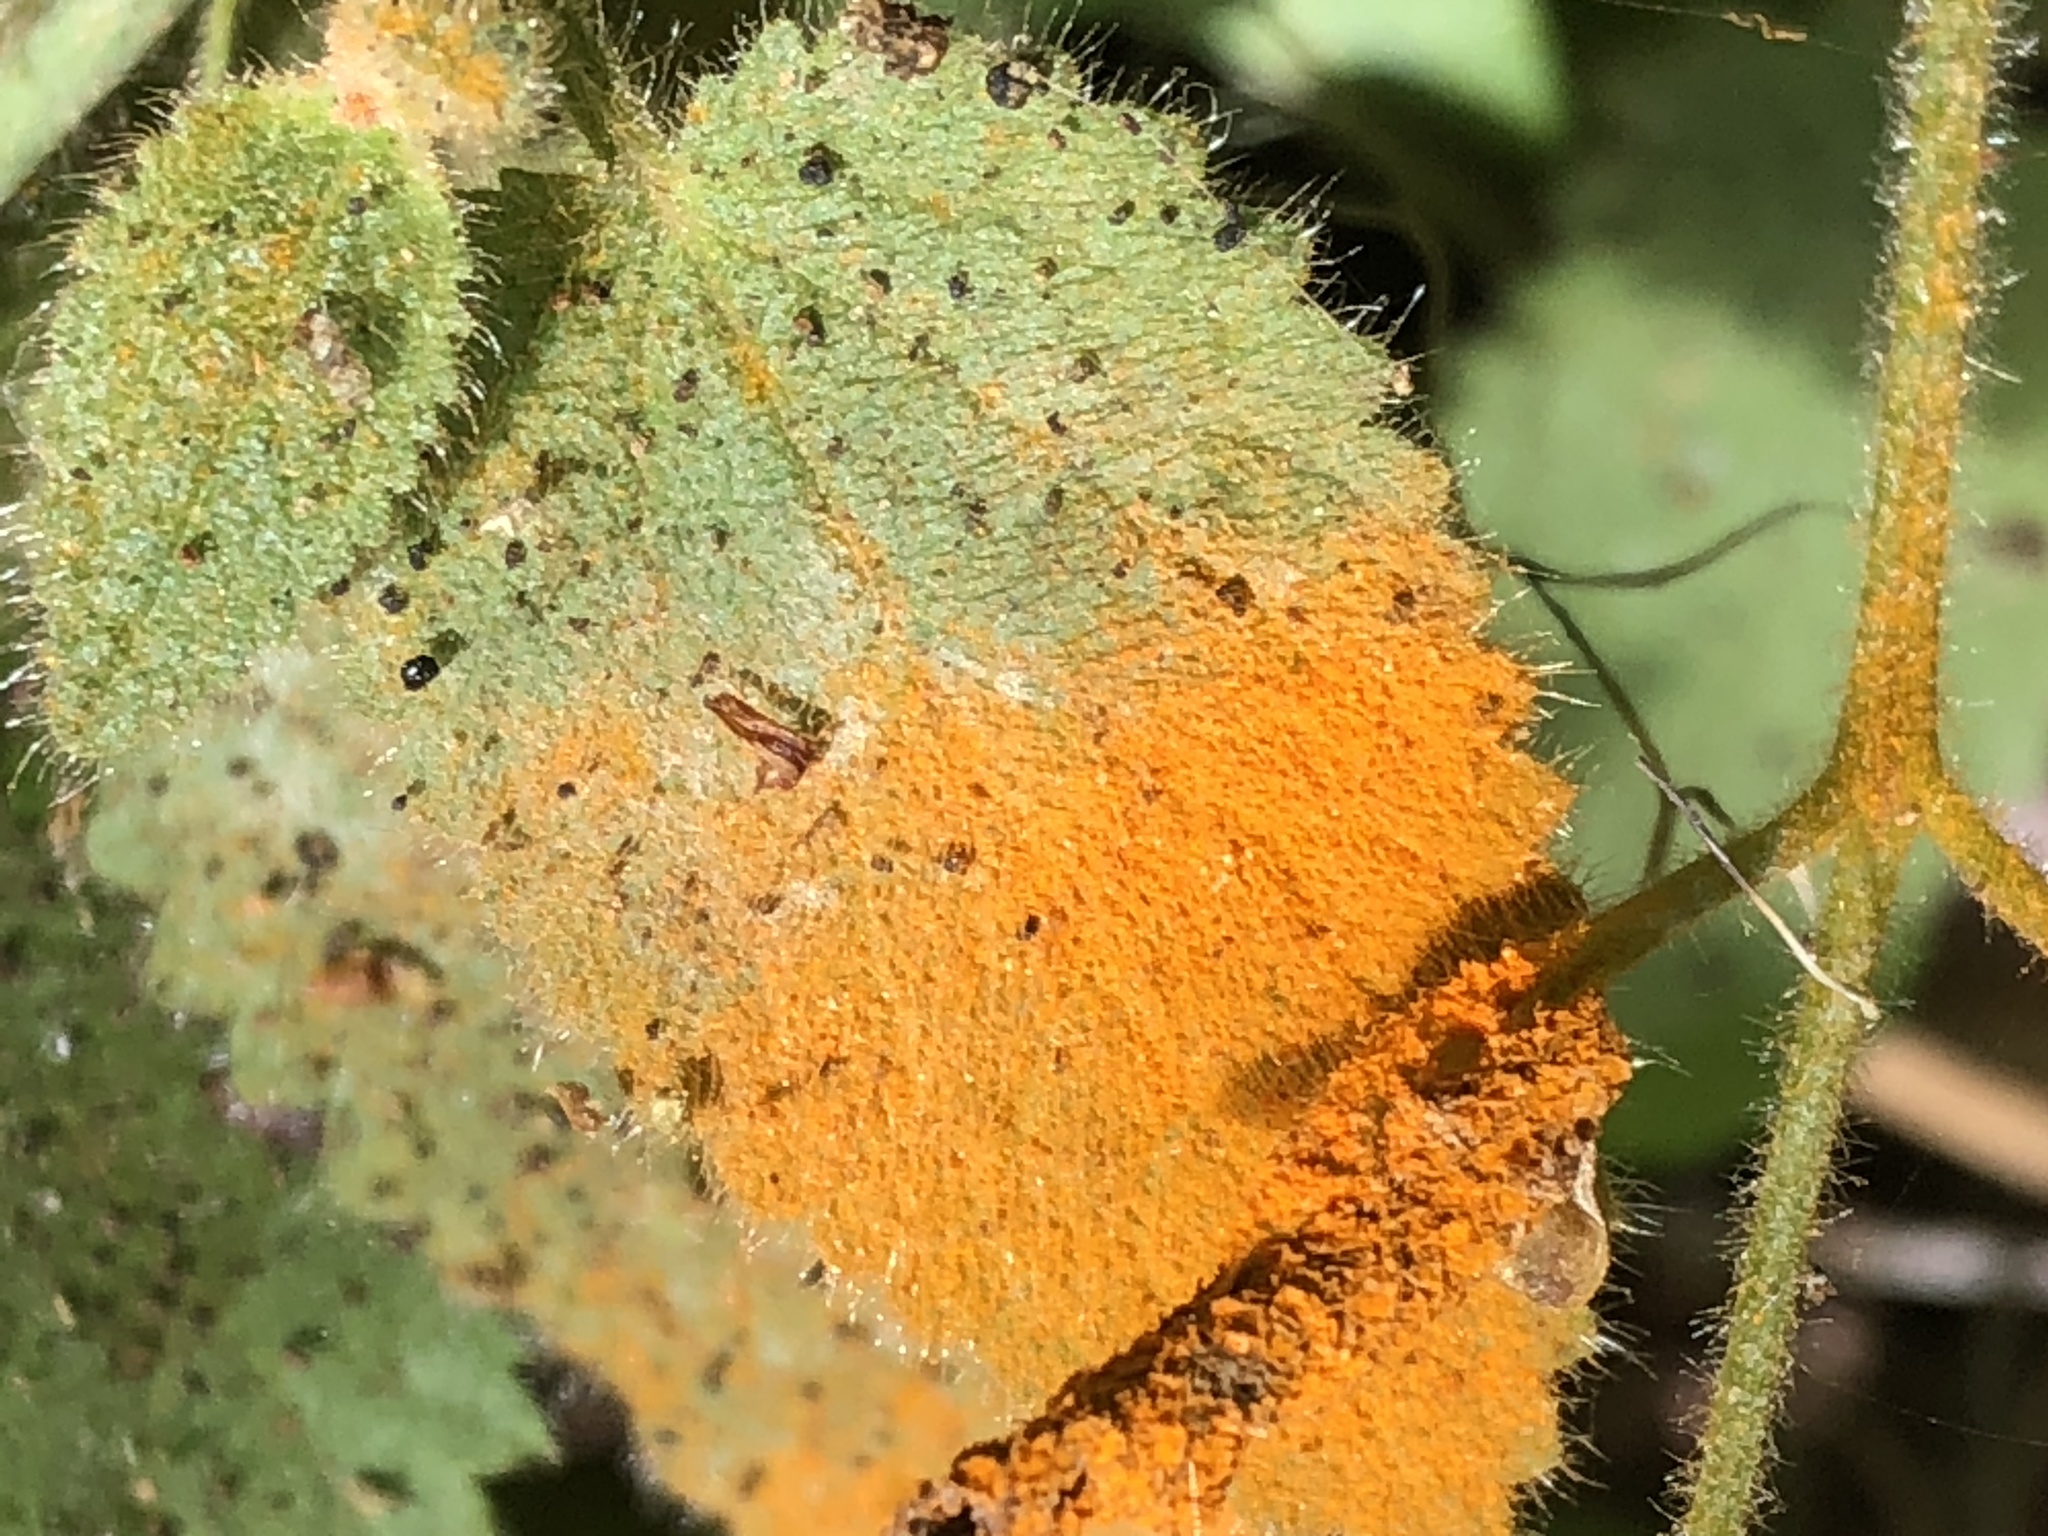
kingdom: Fungi
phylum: Basidiomycota
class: Pucciniomycetes
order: Pucciniales
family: Phragmidiaceae
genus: Arthuriomyces
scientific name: Arthuriomyces peckianus
